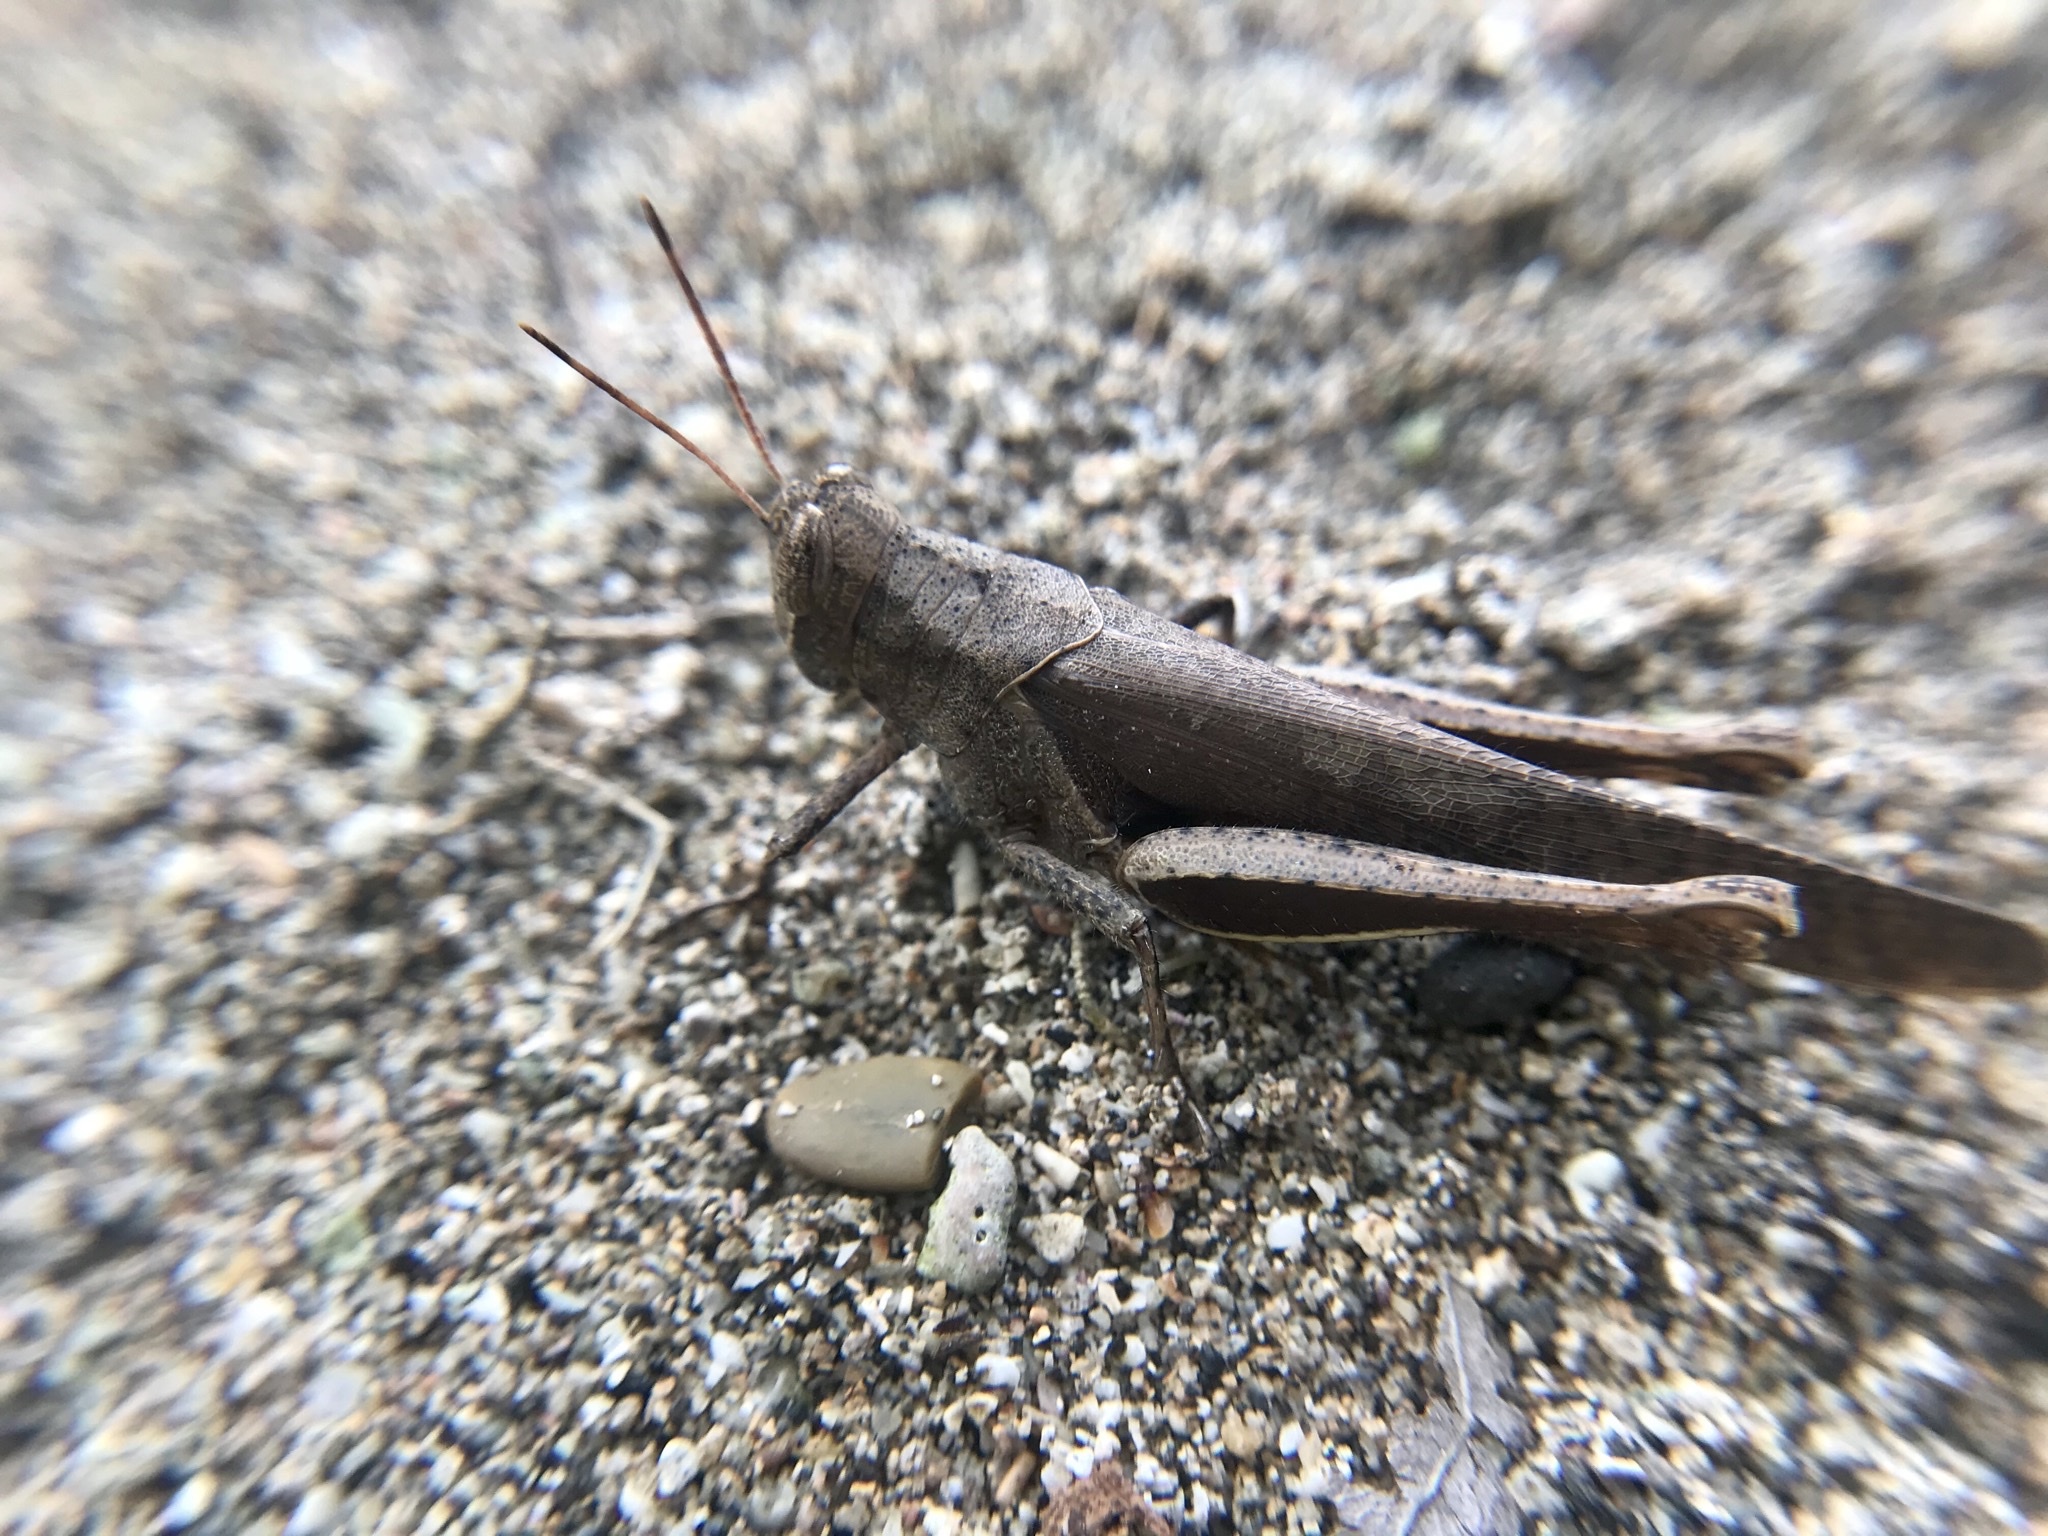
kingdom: Animalia
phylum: Arthropoda
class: Insecta
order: Orthoptera
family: Acrididae
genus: Abracris
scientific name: Abracris flavolineata
